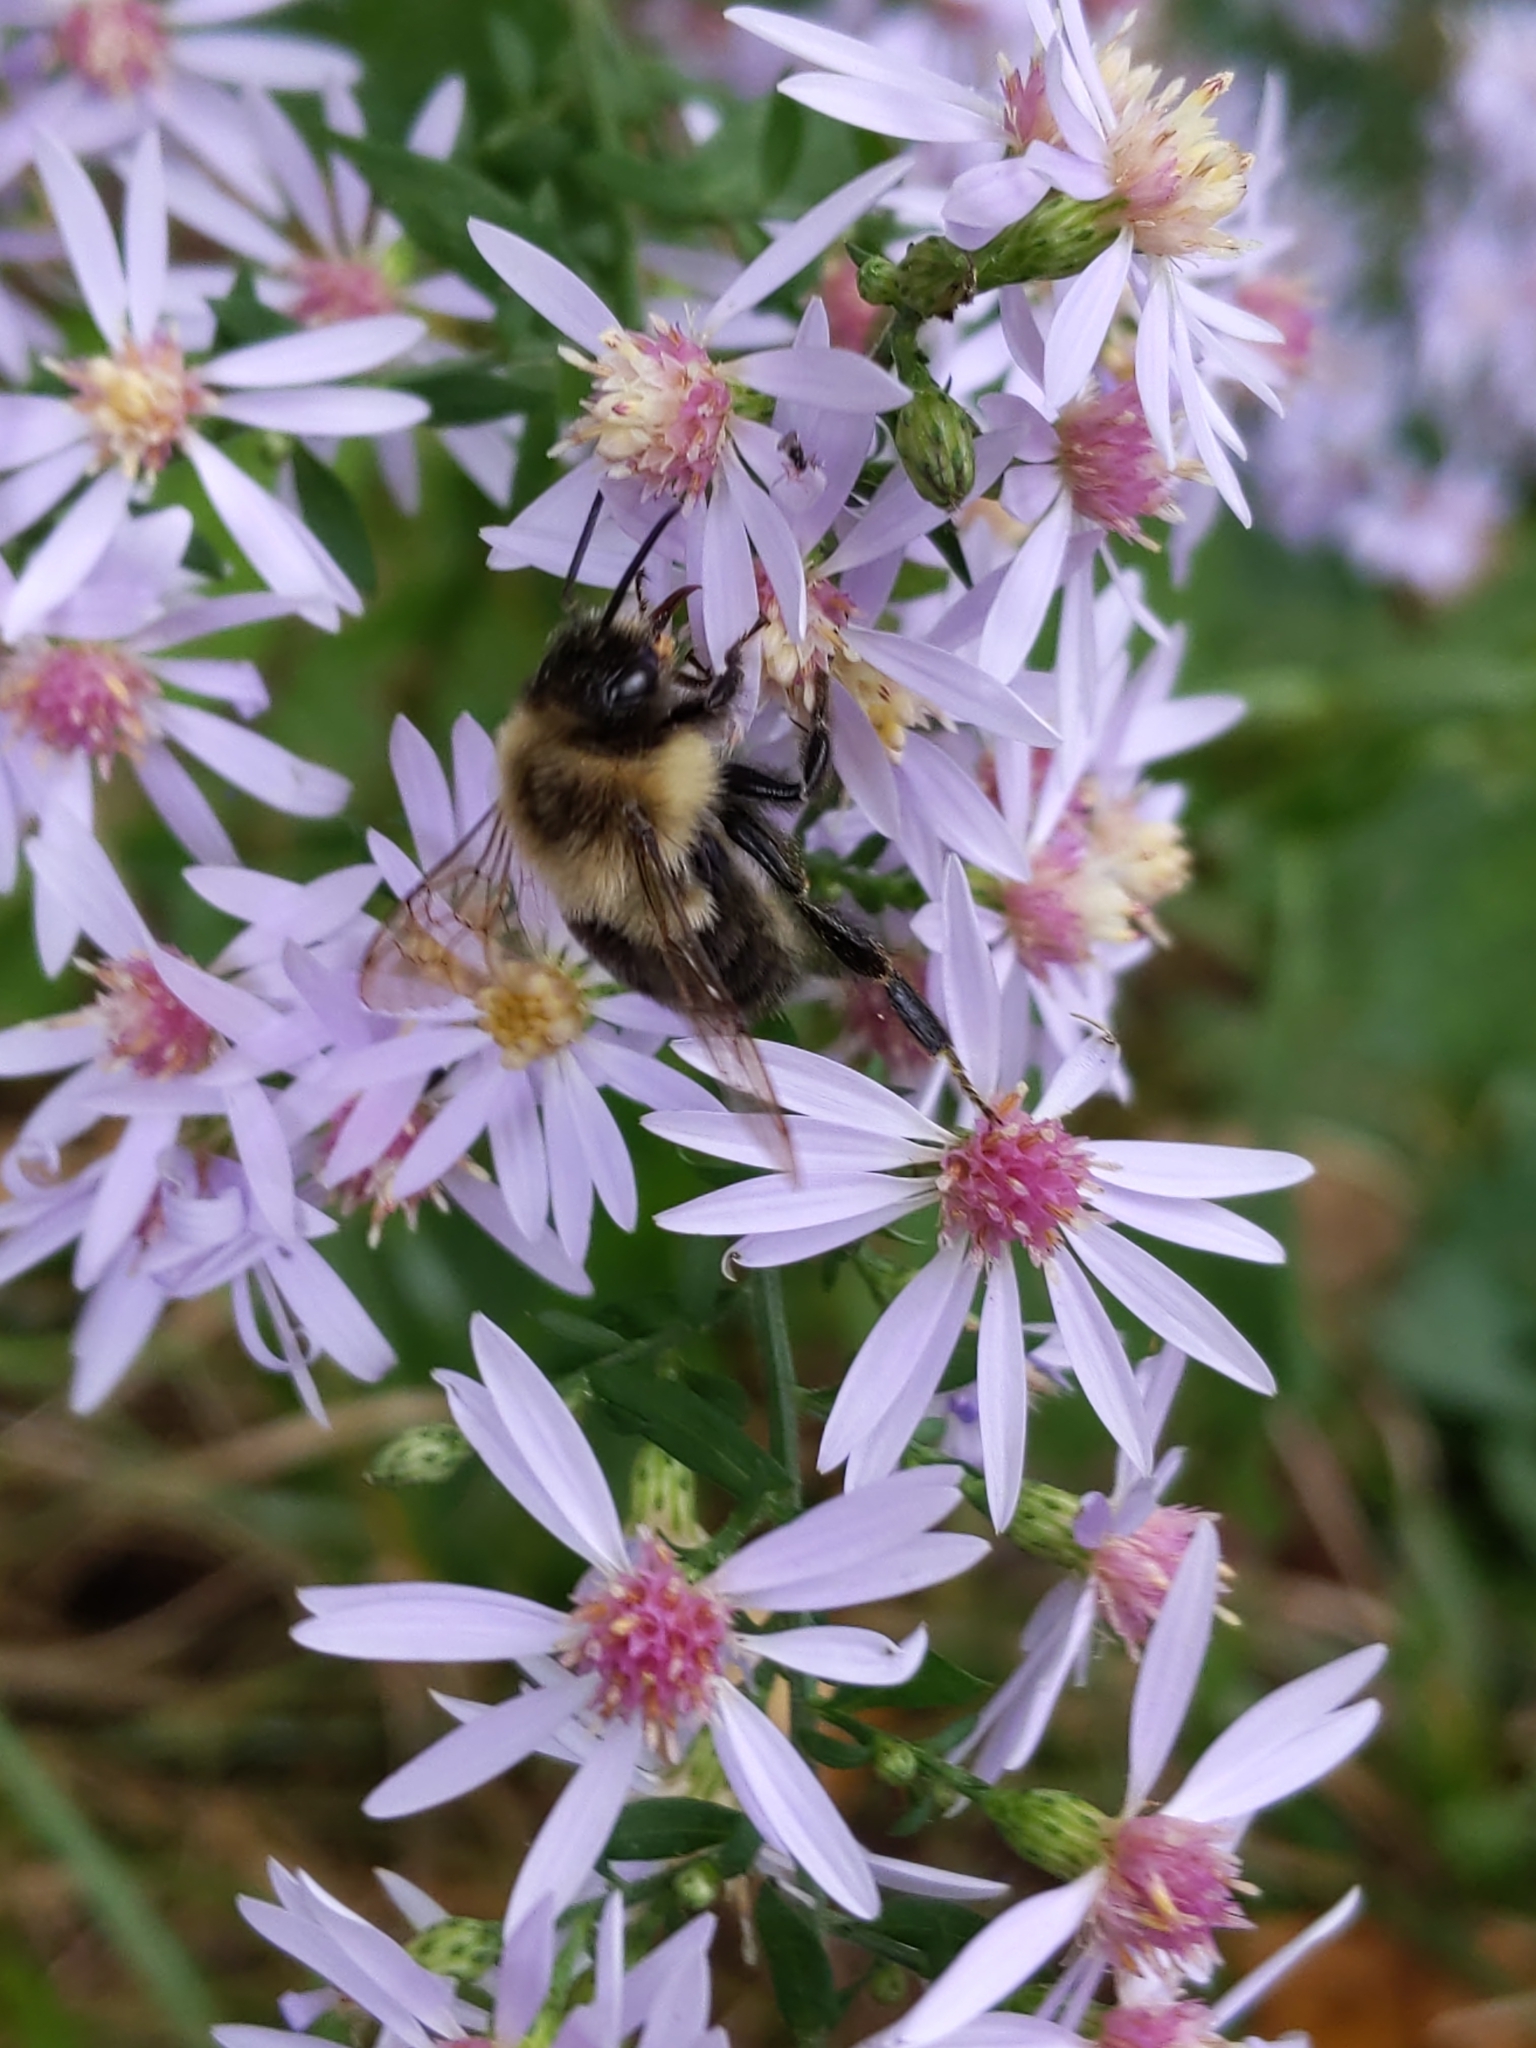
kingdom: Animalia
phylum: Arthropoda
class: Insecta
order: Hymenoptera
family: Apidae
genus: Bombus
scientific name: Bombus impatiens
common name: Common eastern bumble bee
